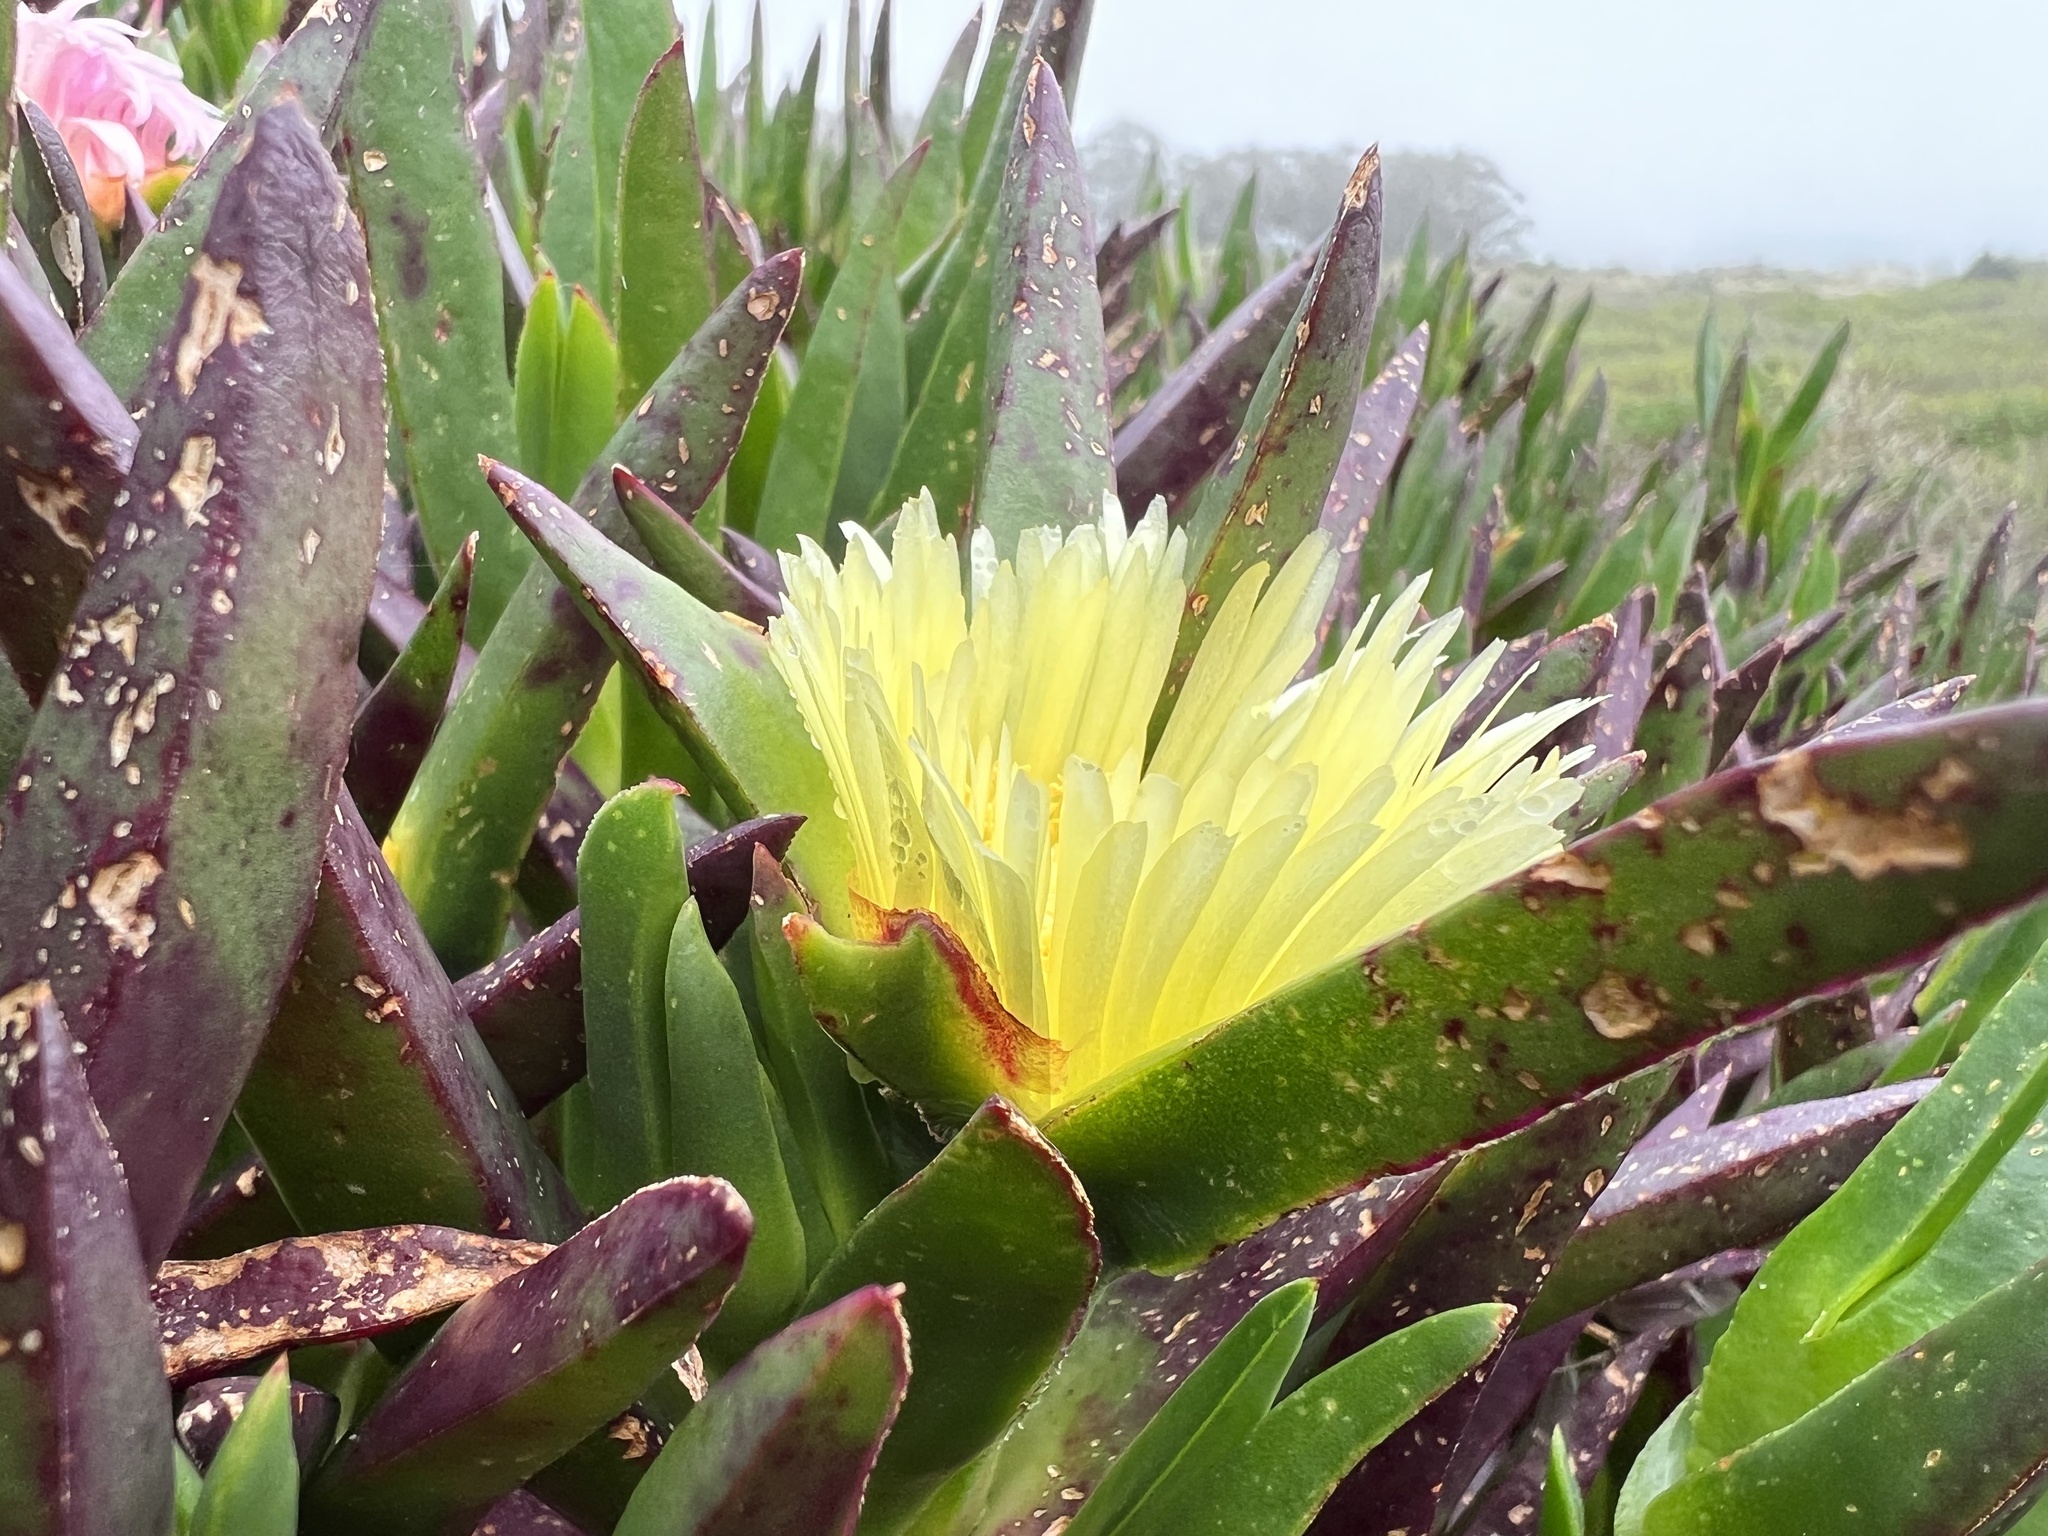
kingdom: Plantae
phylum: Tracheophyta
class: Magnoliopsida
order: Caryophyllales
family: Aizoaceae
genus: Carpobrotus
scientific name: Carpobrotus edulis
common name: Hottentot-fig
